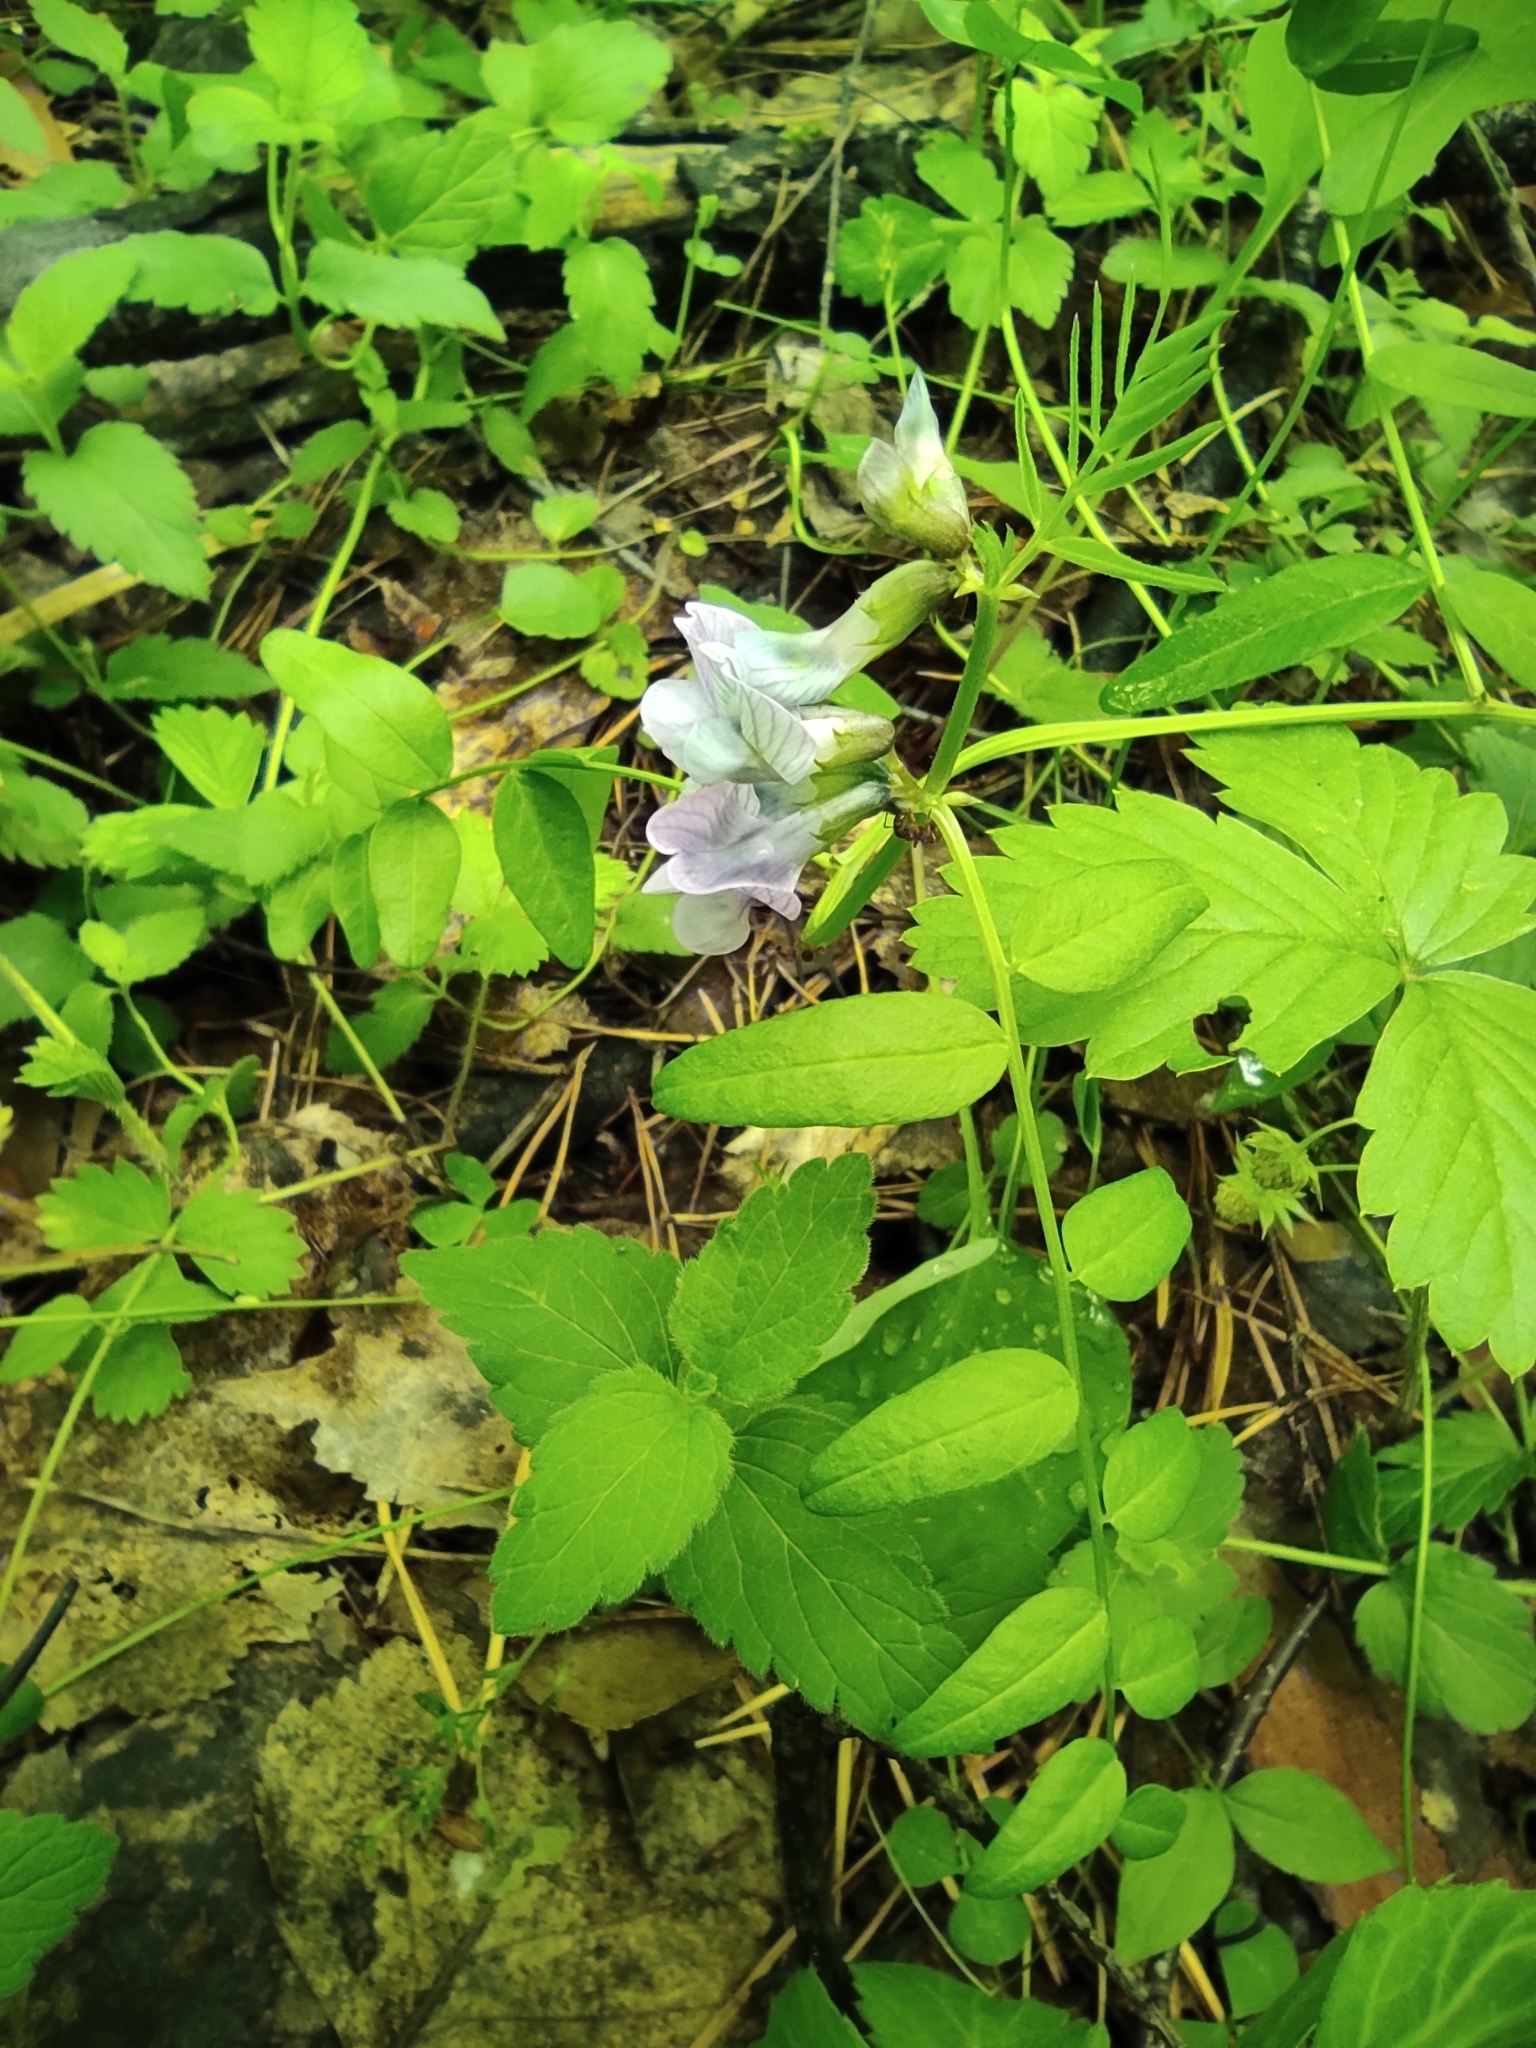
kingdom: Plantae
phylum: Tracheophyta
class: Magnoliopsida
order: Fabales
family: Fabaceae
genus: Vicia
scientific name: Vicia sylvatica
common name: Wood vetch
